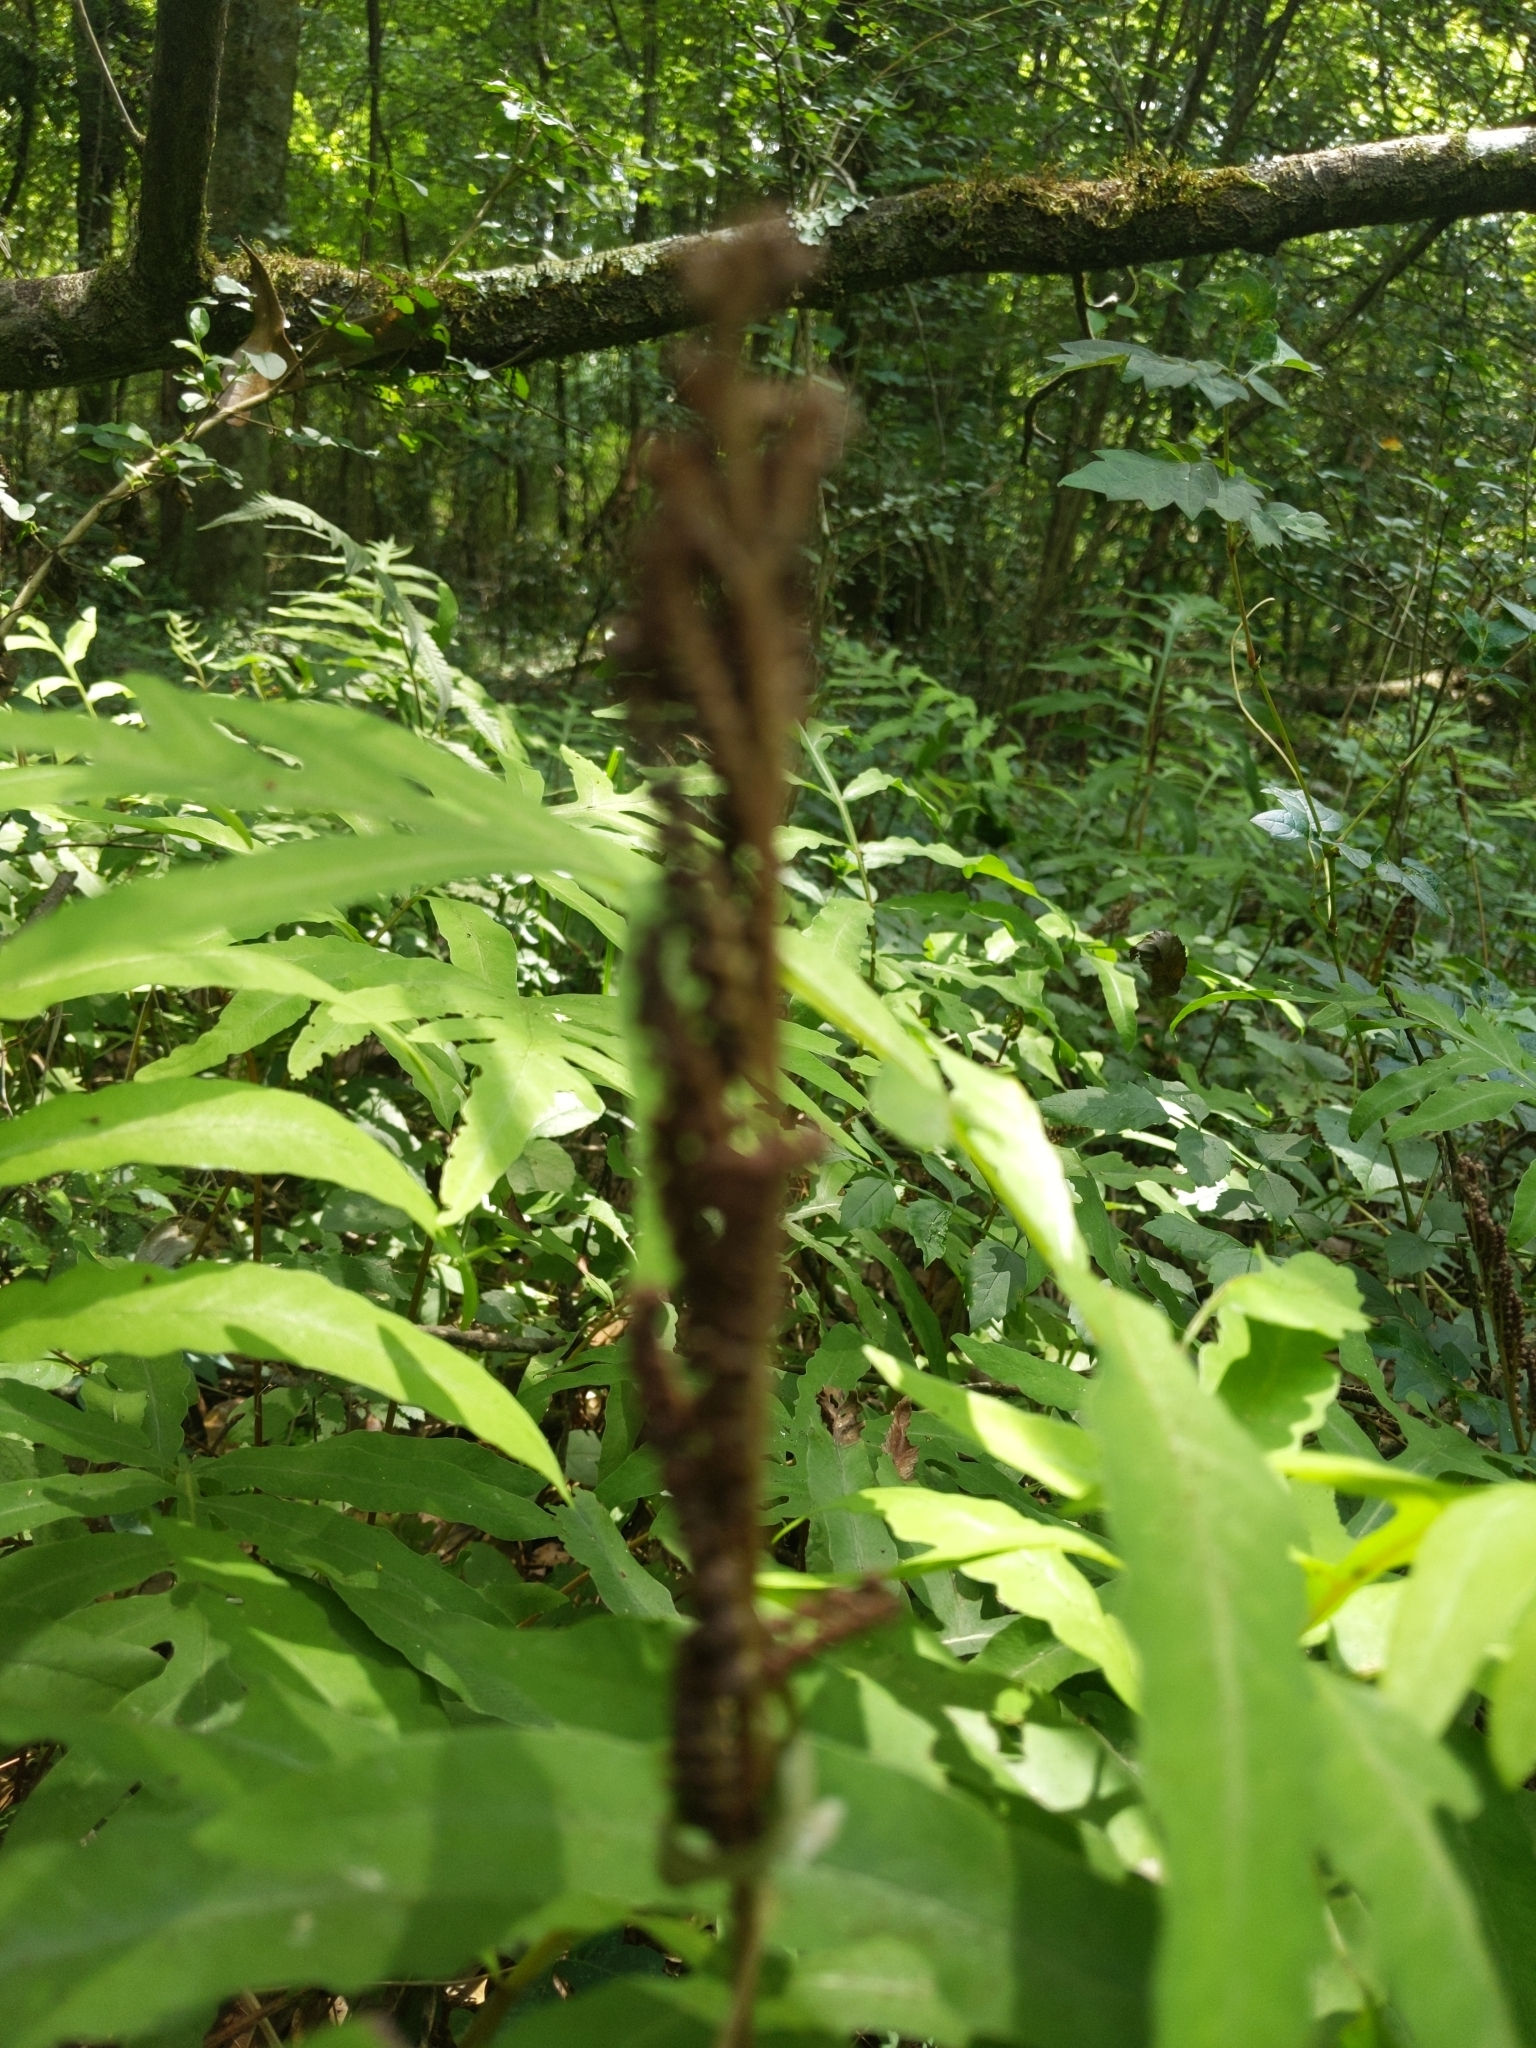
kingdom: Plantae
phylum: Tracheophyta
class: Polypodiopsida
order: Polypodiales
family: Onocleaceae
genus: Onoclea
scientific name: Onoclea sensibilis
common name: Sensitive fern
